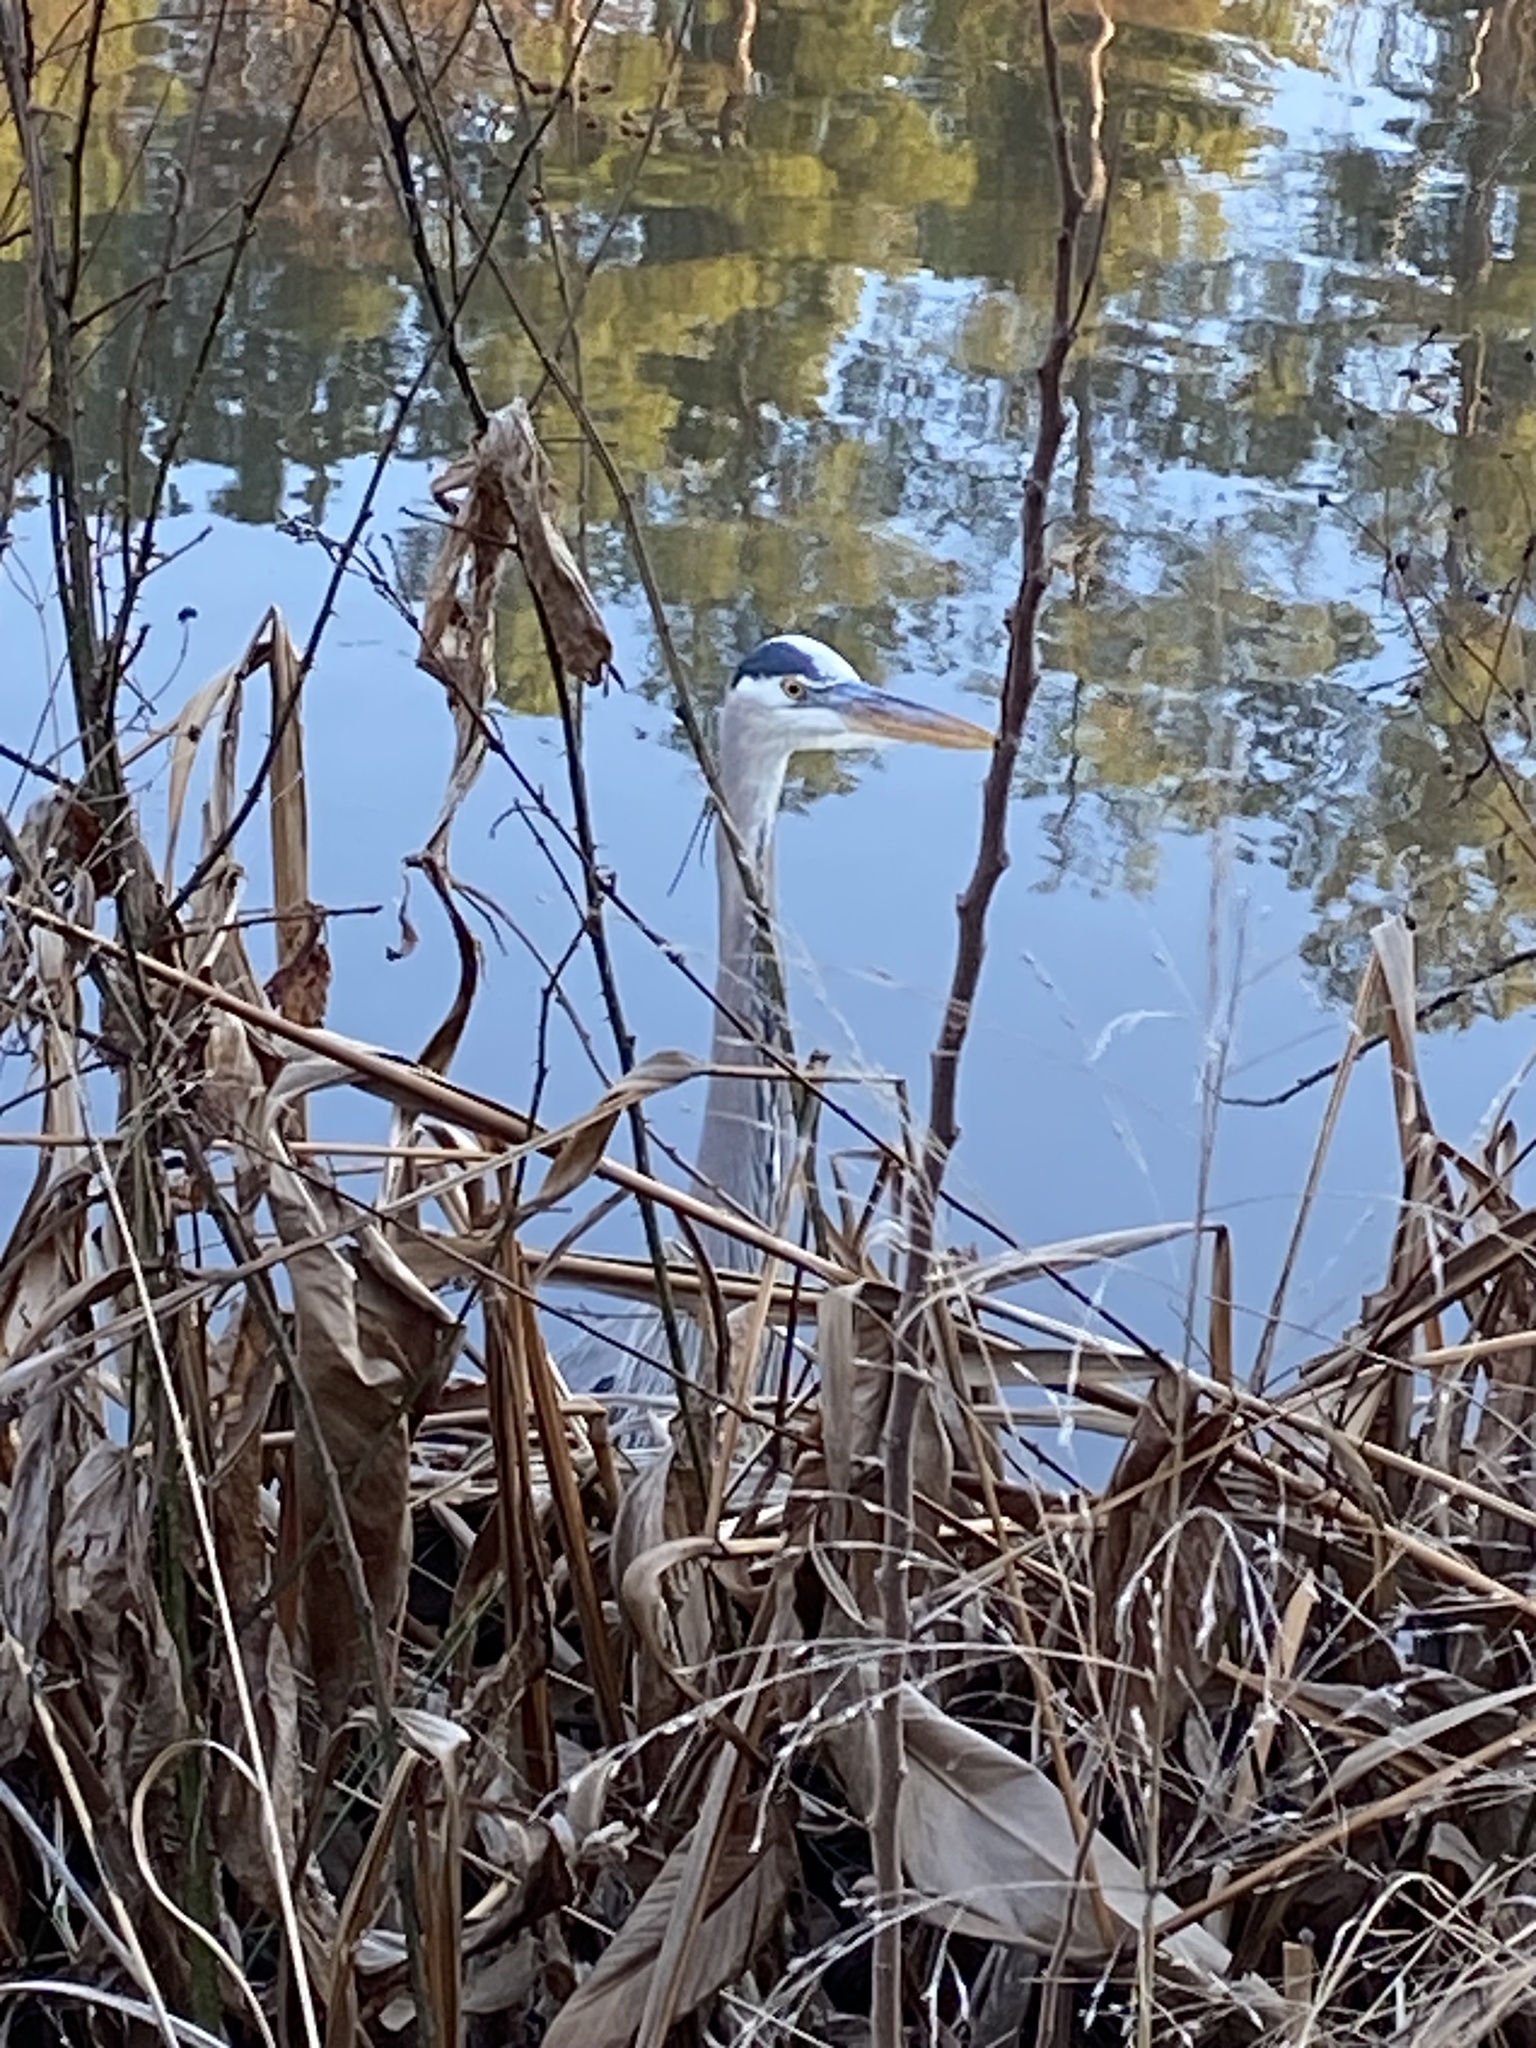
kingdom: Animalia
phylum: Chordata
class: Aves
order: Pelecaniformes
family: Ardeidae
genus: Ardea
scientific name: Ardea herodias
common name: Great blue heron
